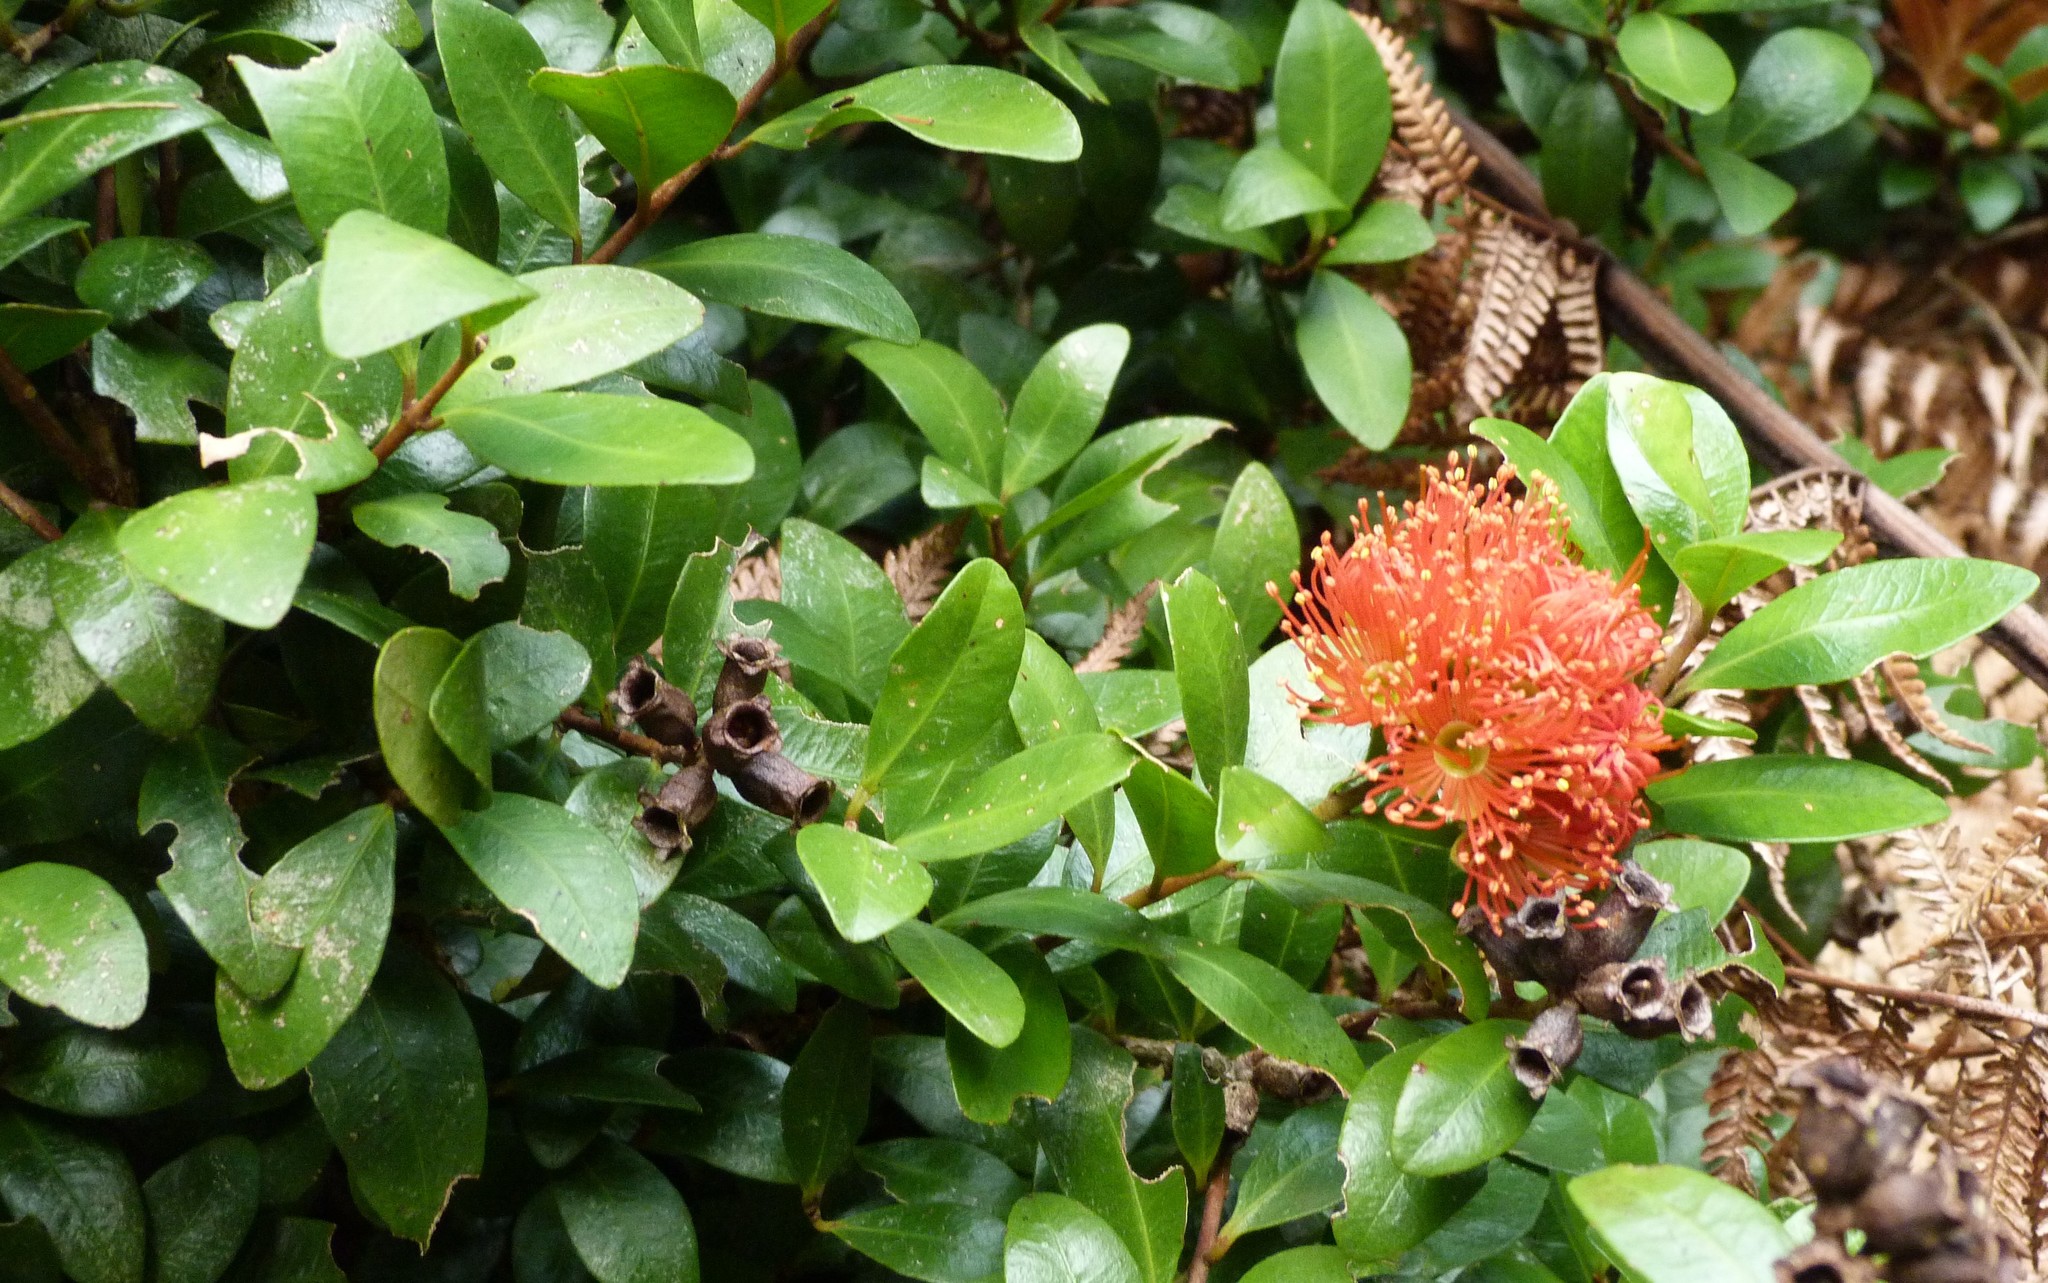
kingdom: Plantae
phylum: Tracheophyta
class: Magnoliopsida
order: Myrtales
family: Myrtaceae
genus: Metrosideros
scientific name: Metrosideros fulgens
